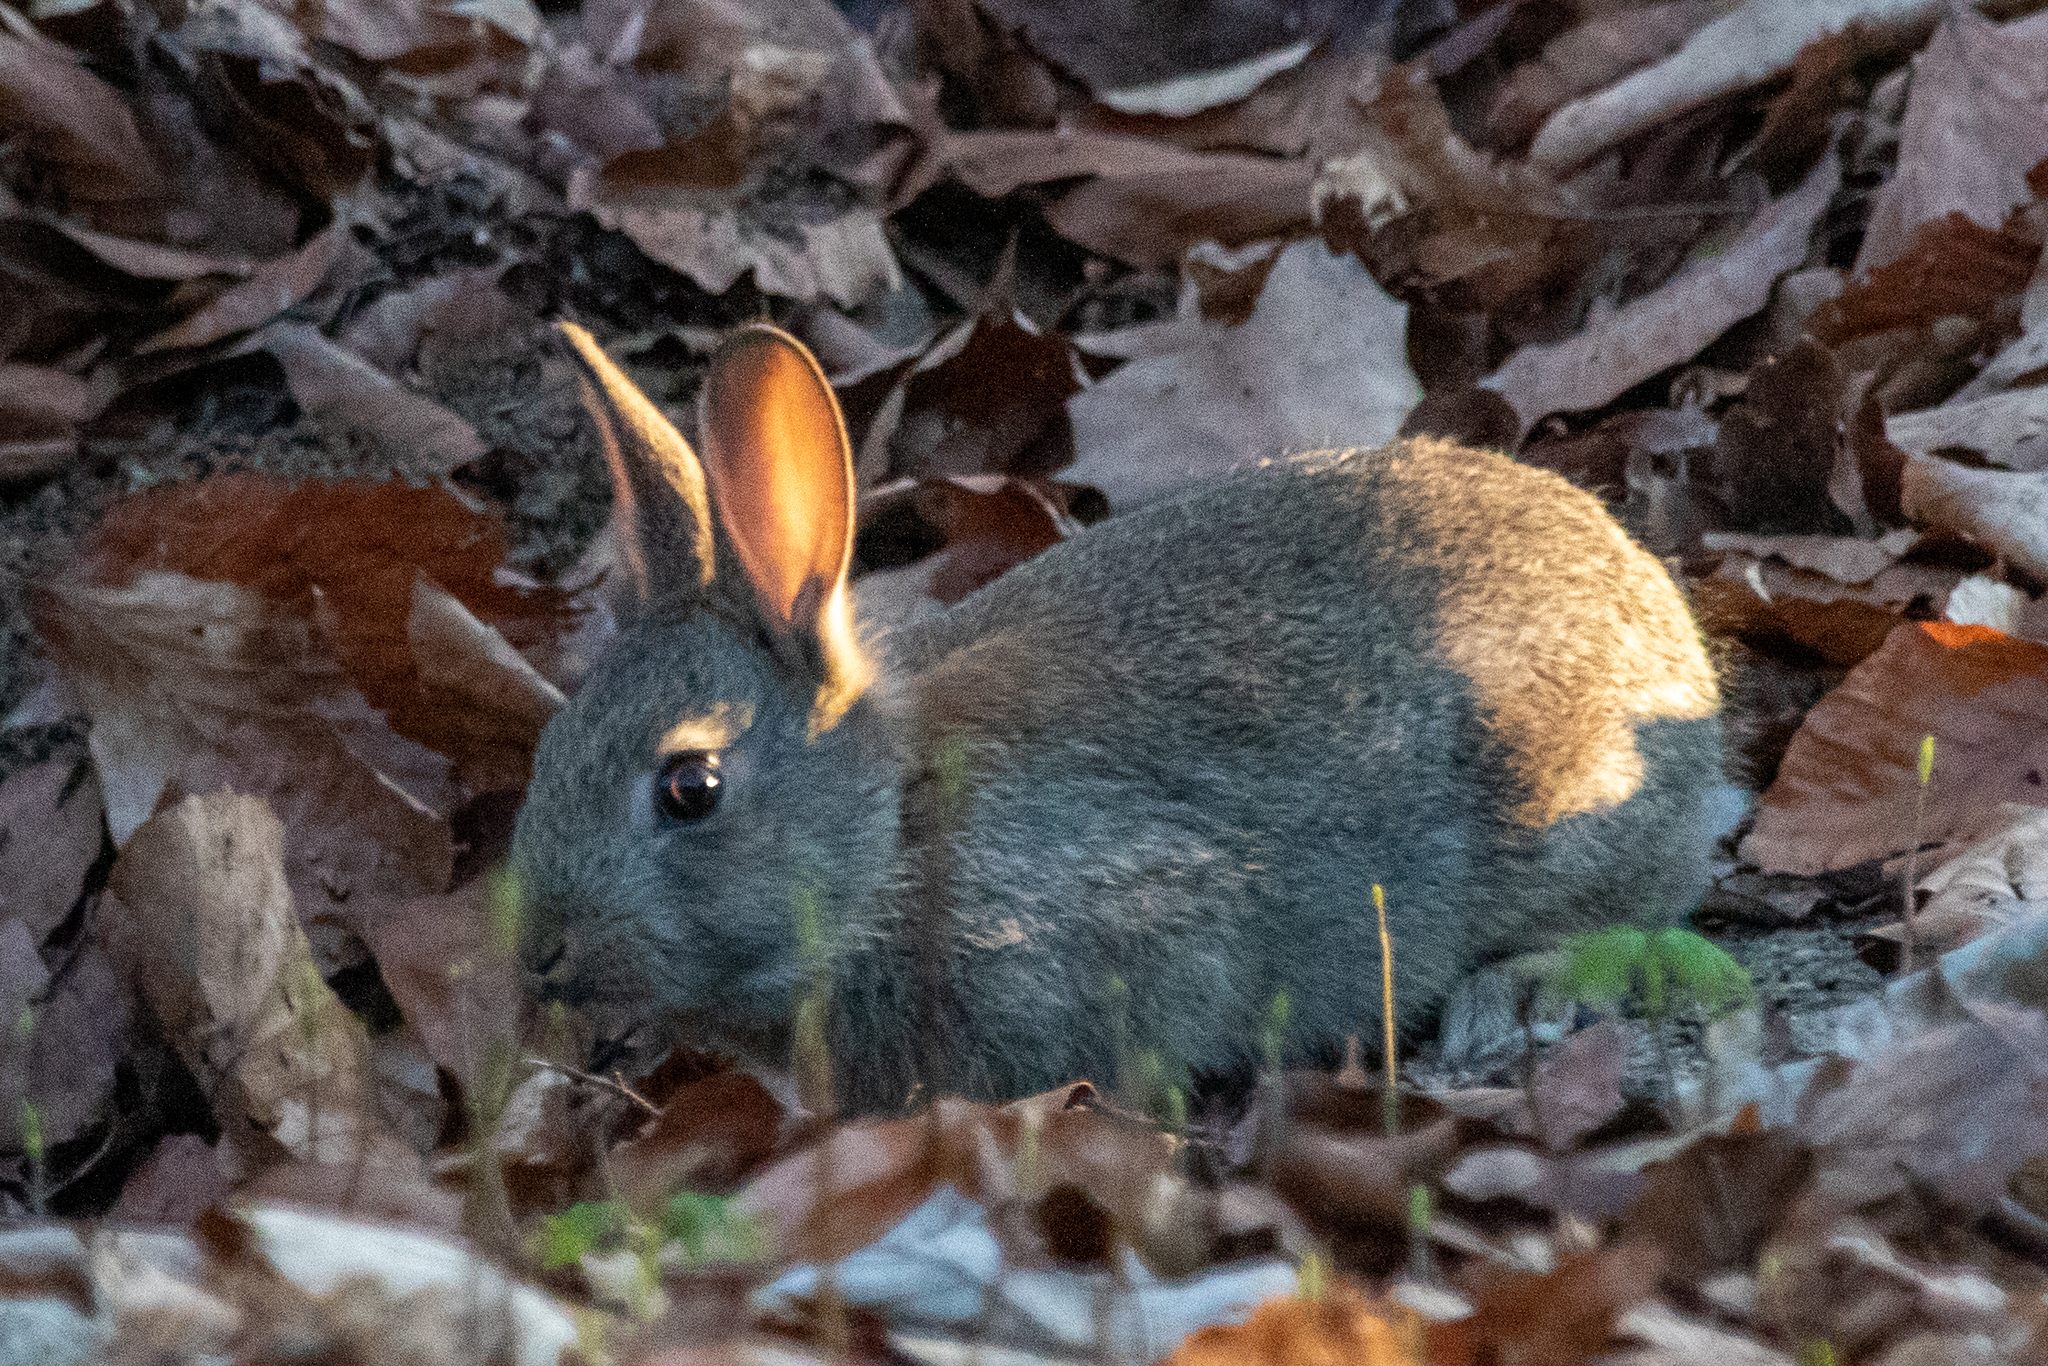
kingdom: Animalia
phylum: Chordata
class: Mammalia
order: Lagomorpha
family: Leporidae
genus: Oryctolagus
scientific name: Oryctolagus cuniculus
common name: European rabbit
